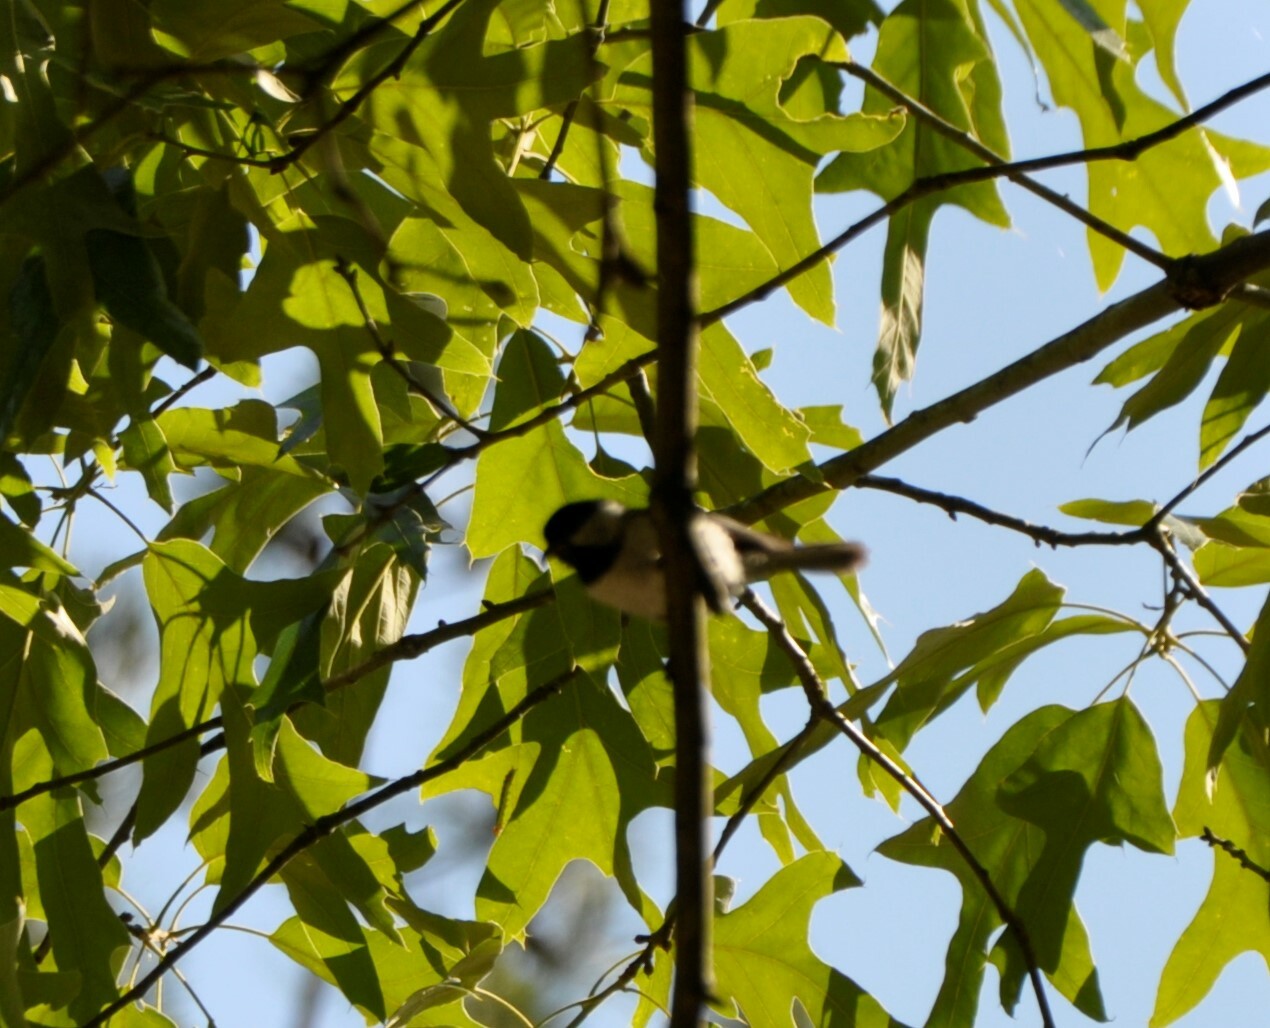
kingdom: Animalia
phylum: Chordata
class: Aves
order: Passeriformes
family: Paridae
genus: Poecile
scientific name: Poecile carolinensis
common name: Carolina chickadee
